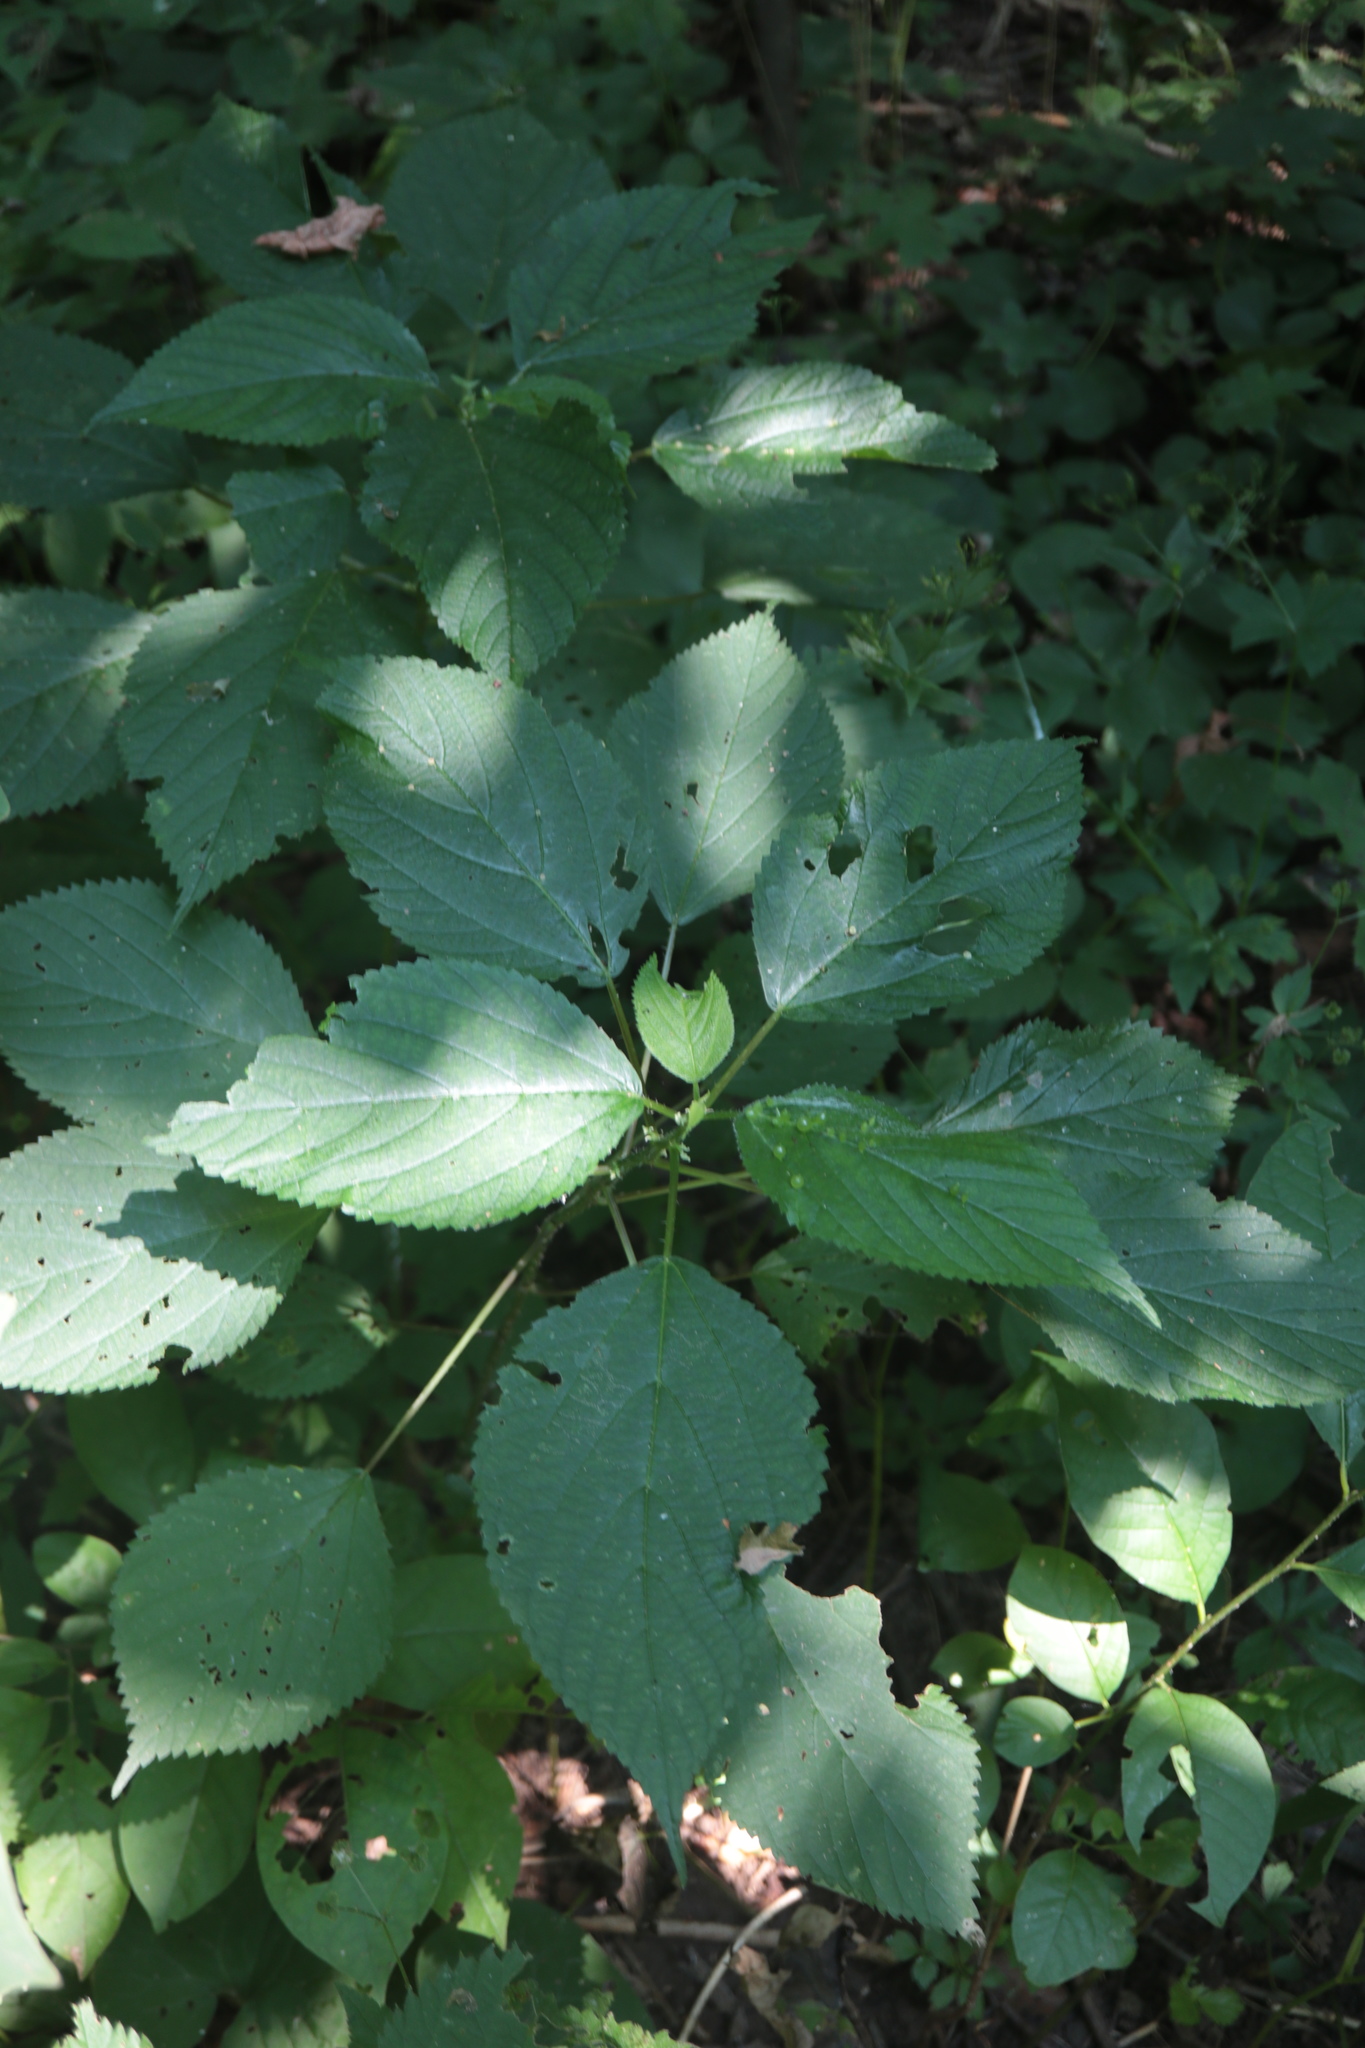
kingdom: Animalia
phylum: Arthropoda
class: Insecta
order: Diptera
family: Cecidomyiidae
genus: Dasineura
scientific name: Dasineura investita
